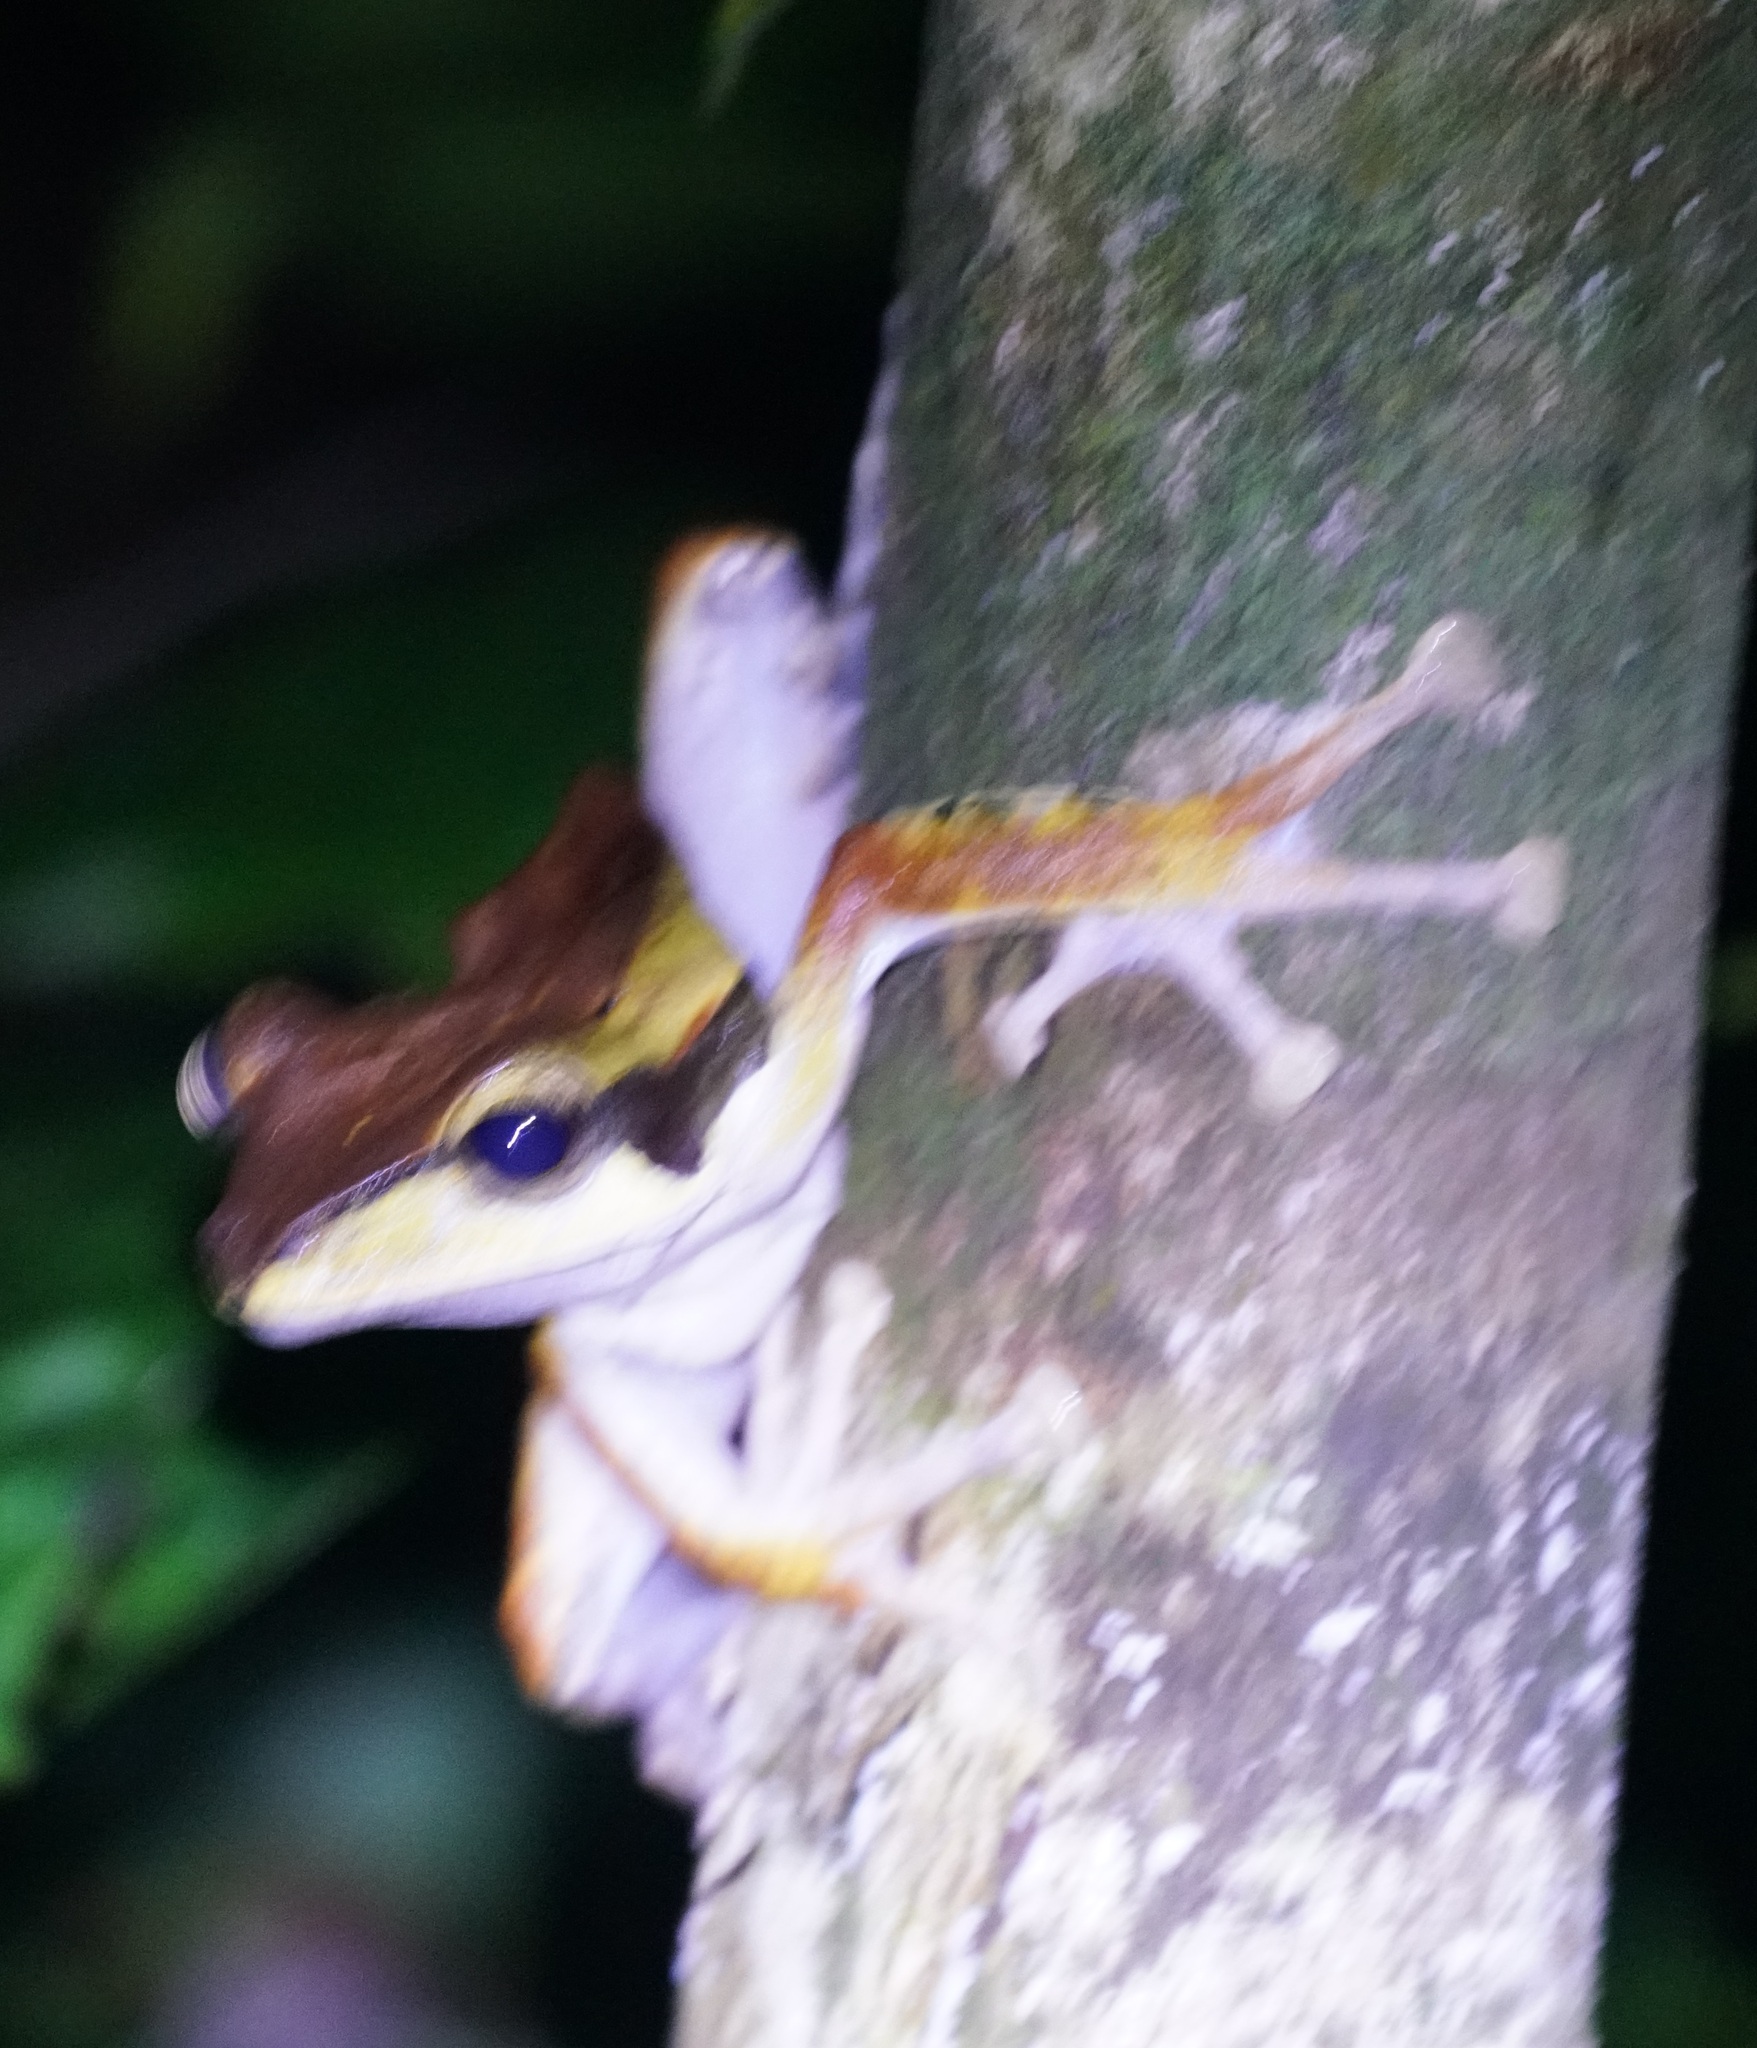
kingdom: Animalia
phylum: Chordata
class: Amphibia
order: Anura
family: Rhacophoridae
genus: Polypedates
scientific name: Polypedates macrotis
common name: Dark-eared tree frog
